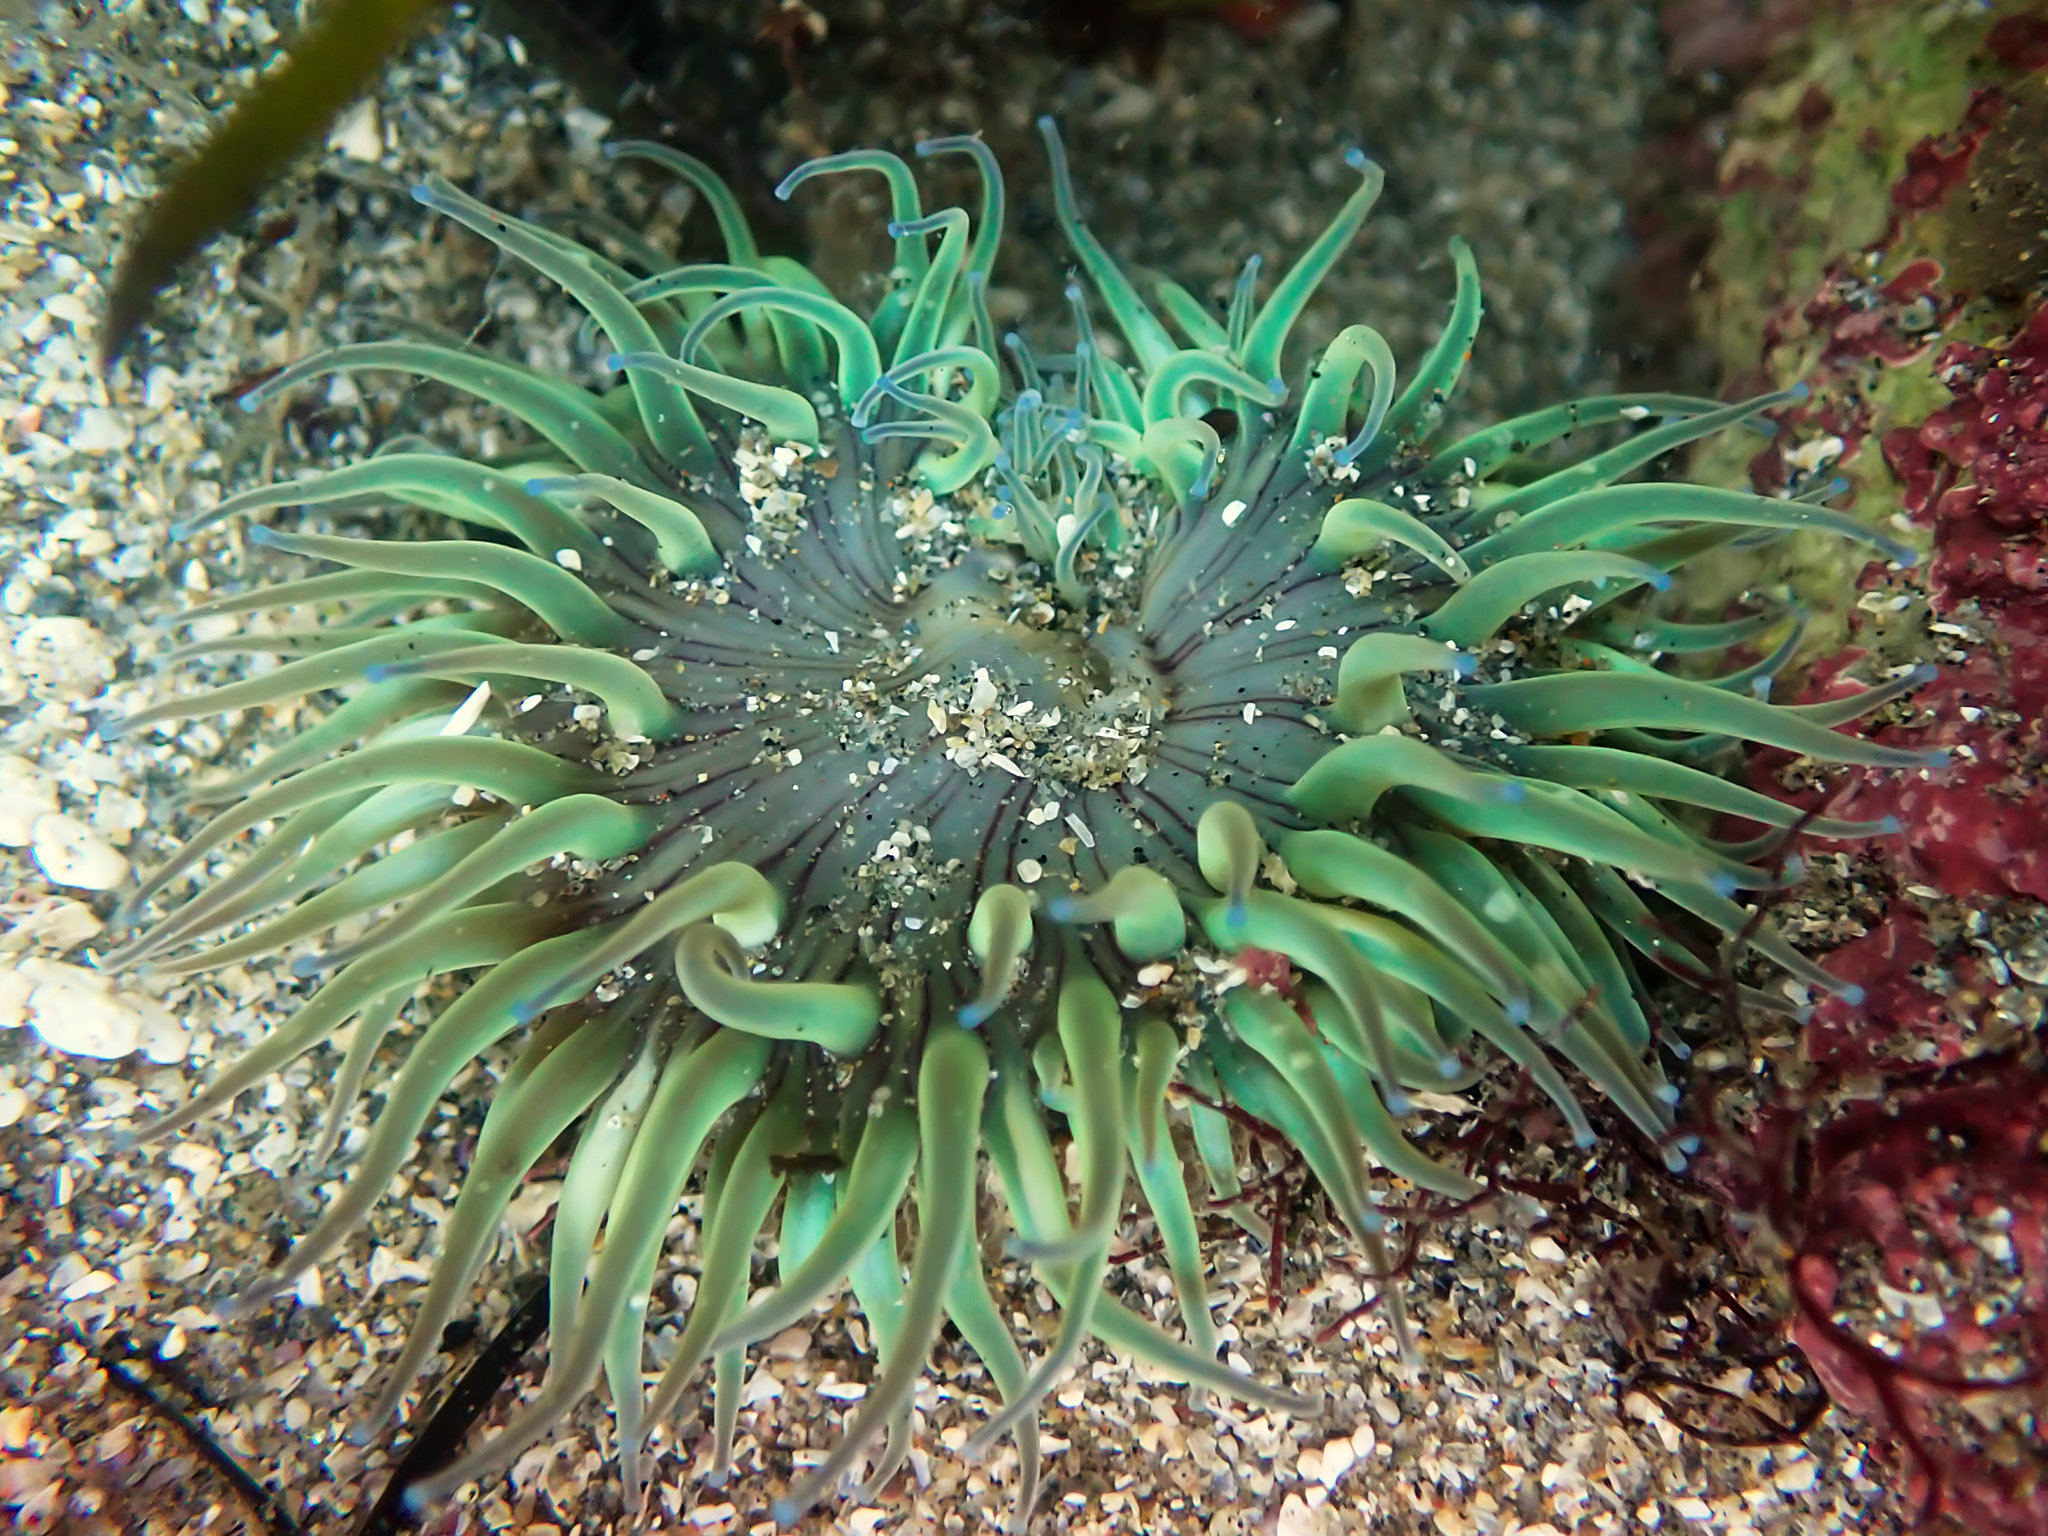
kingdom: Animalia
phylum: Cnidaria
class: Anthozoa
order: Actiniaria
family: Actiniidae
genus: Anthopleura
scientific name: Anthopleura sola
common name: Sun anemone
